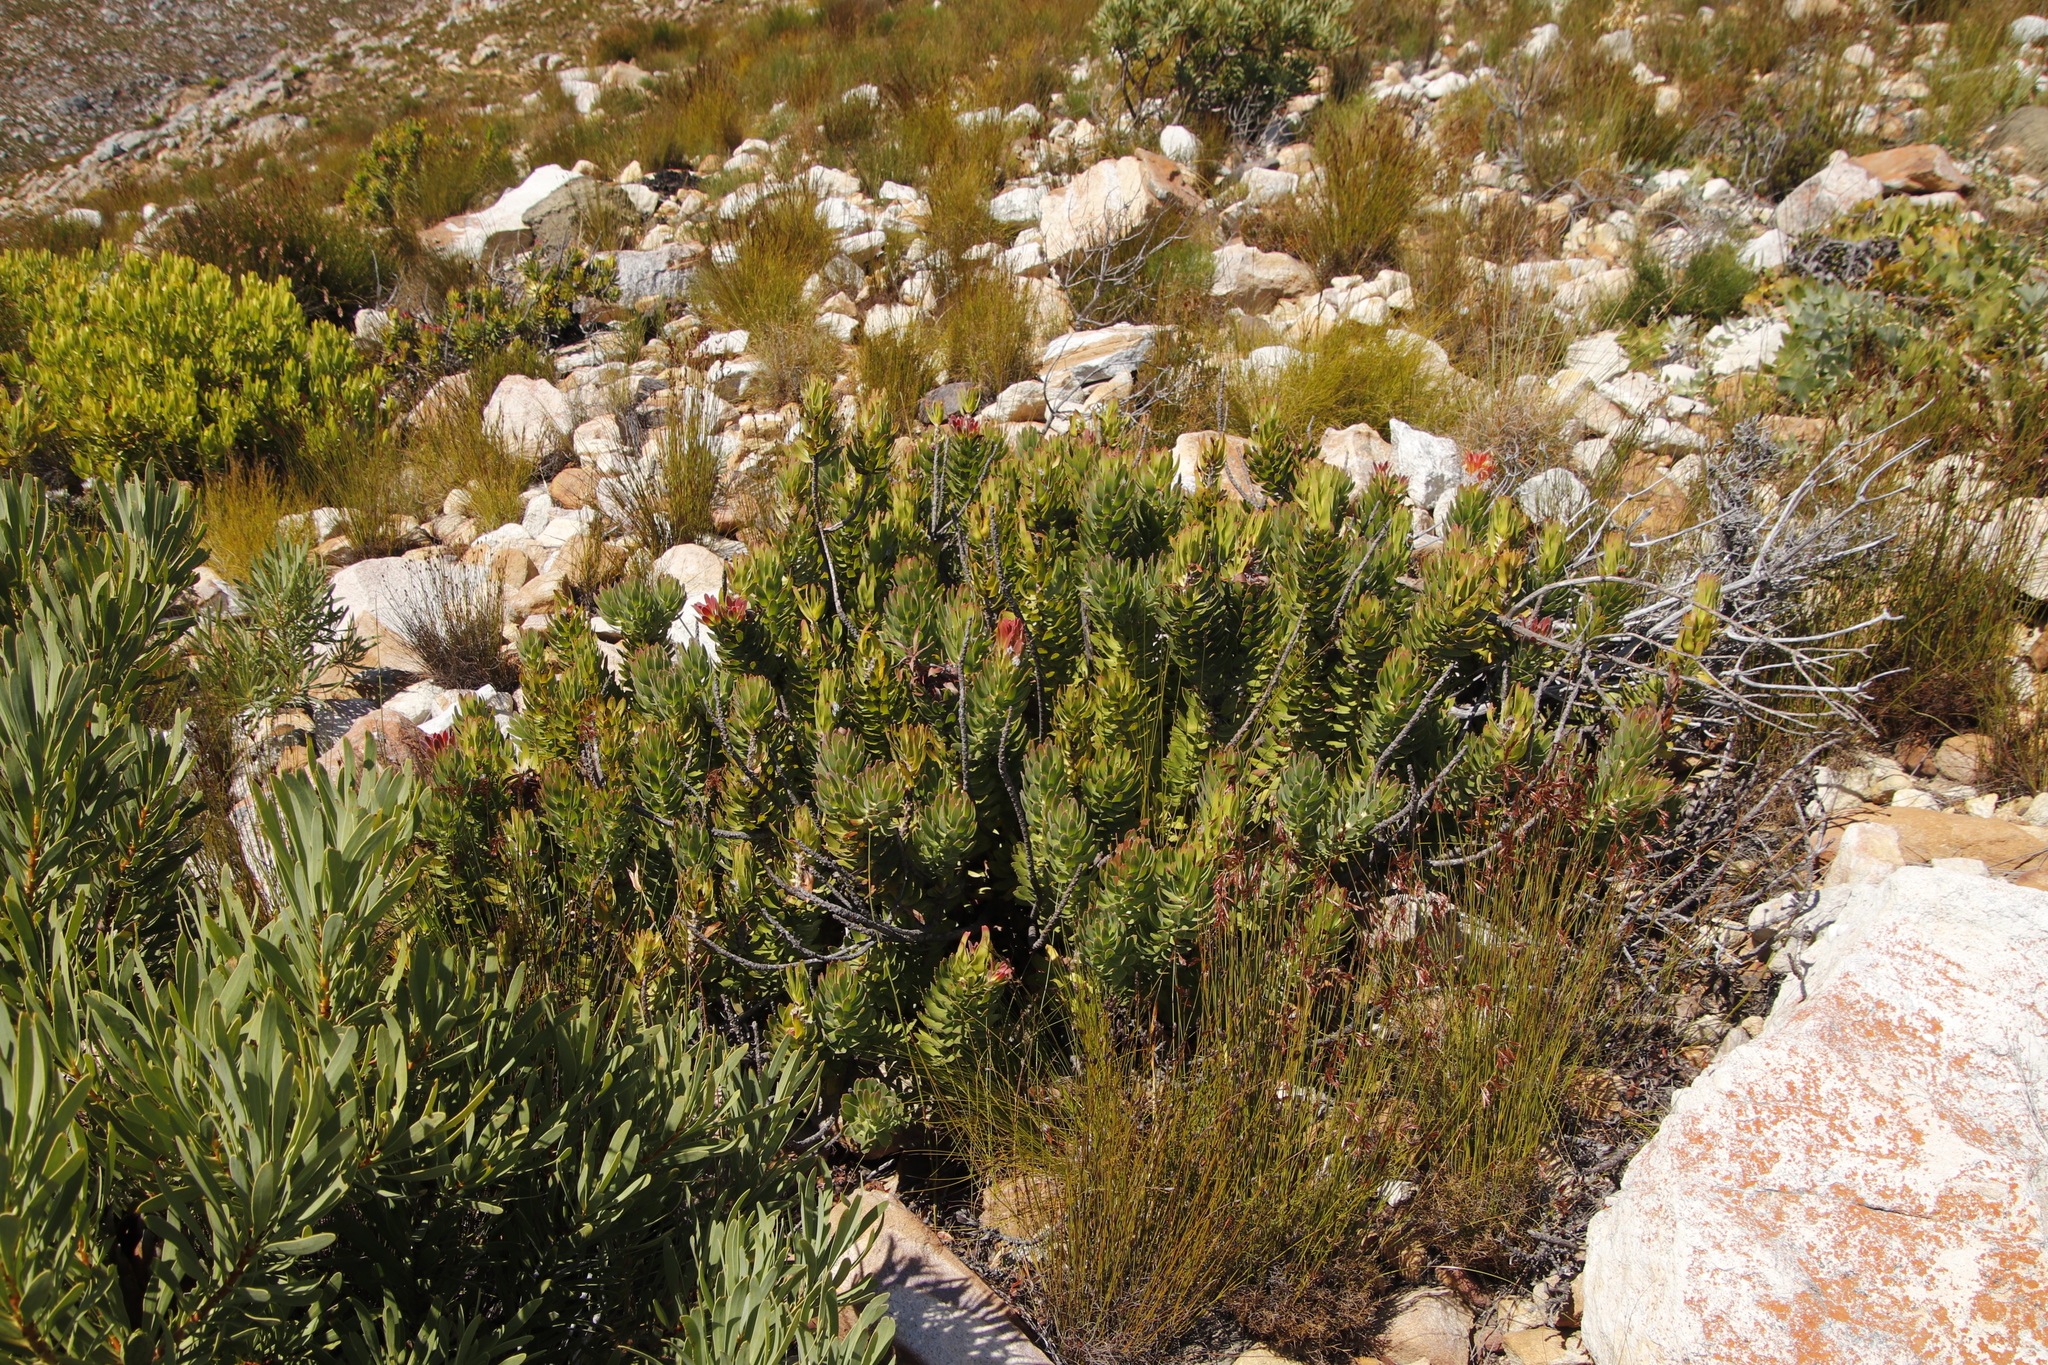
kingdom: Plantae
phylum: Tracheophyta
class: Magnoliopsida
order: Proteales
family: Proteaceae
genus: Mimetes
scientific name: Mimetes cucullatus
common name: Common pagoda
